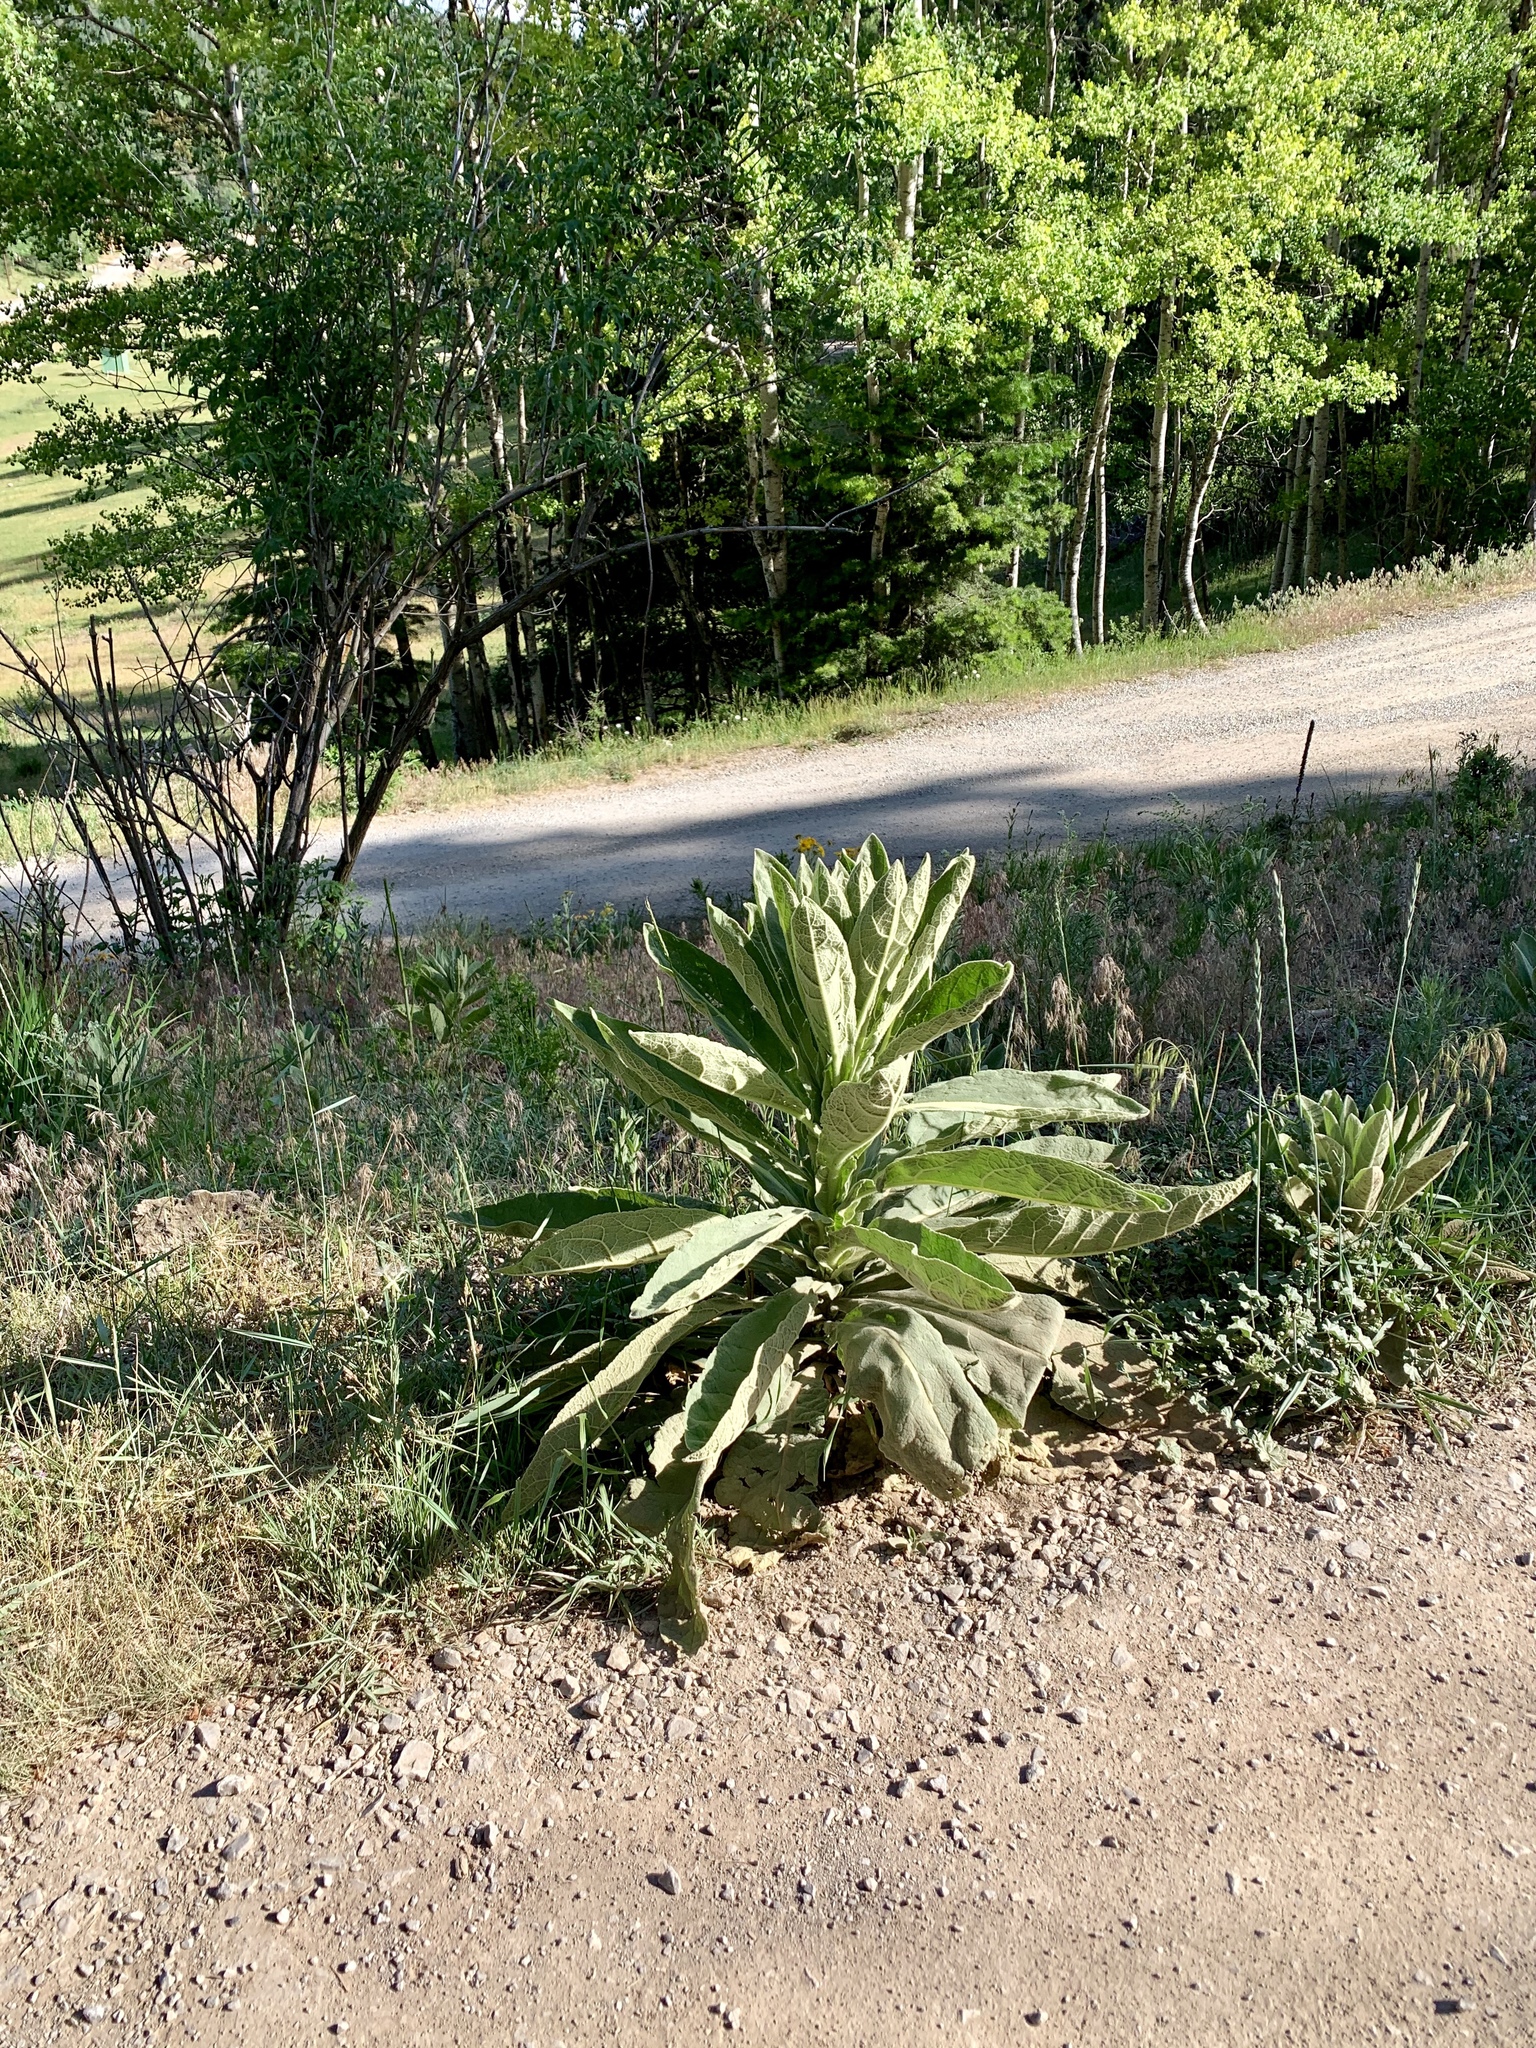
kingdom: Plantae
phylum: Tracheophyta
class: Magnoliopsida
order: Lamiales
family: Scrophulariaceae
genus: Verbascum
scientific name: Verbascum thapsus
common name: Common mullein
